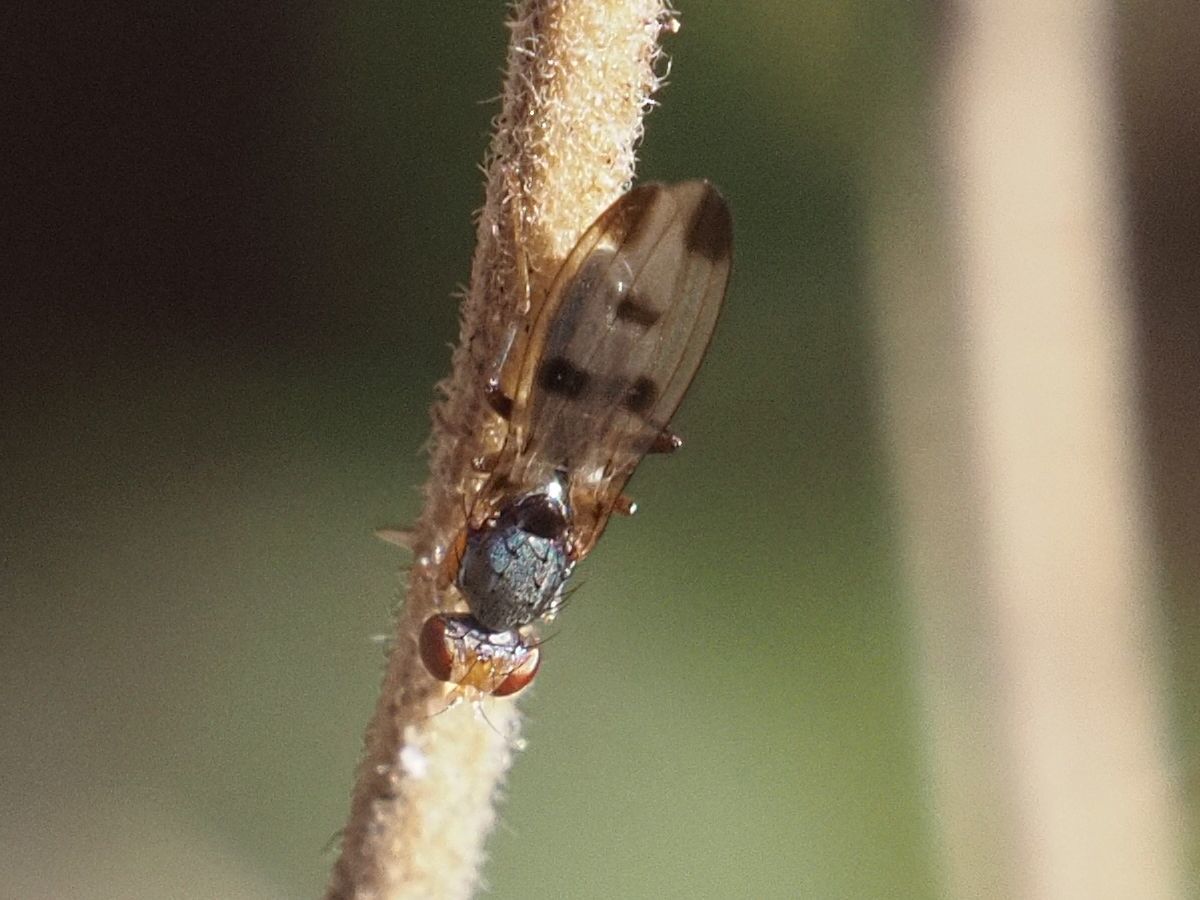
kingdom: Animalia
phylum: Arthropoda
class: Insecta
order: Diptera
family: Opomyzidae
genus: Geomyza
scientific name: Geomyza tripunctata
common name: Cereal fly
